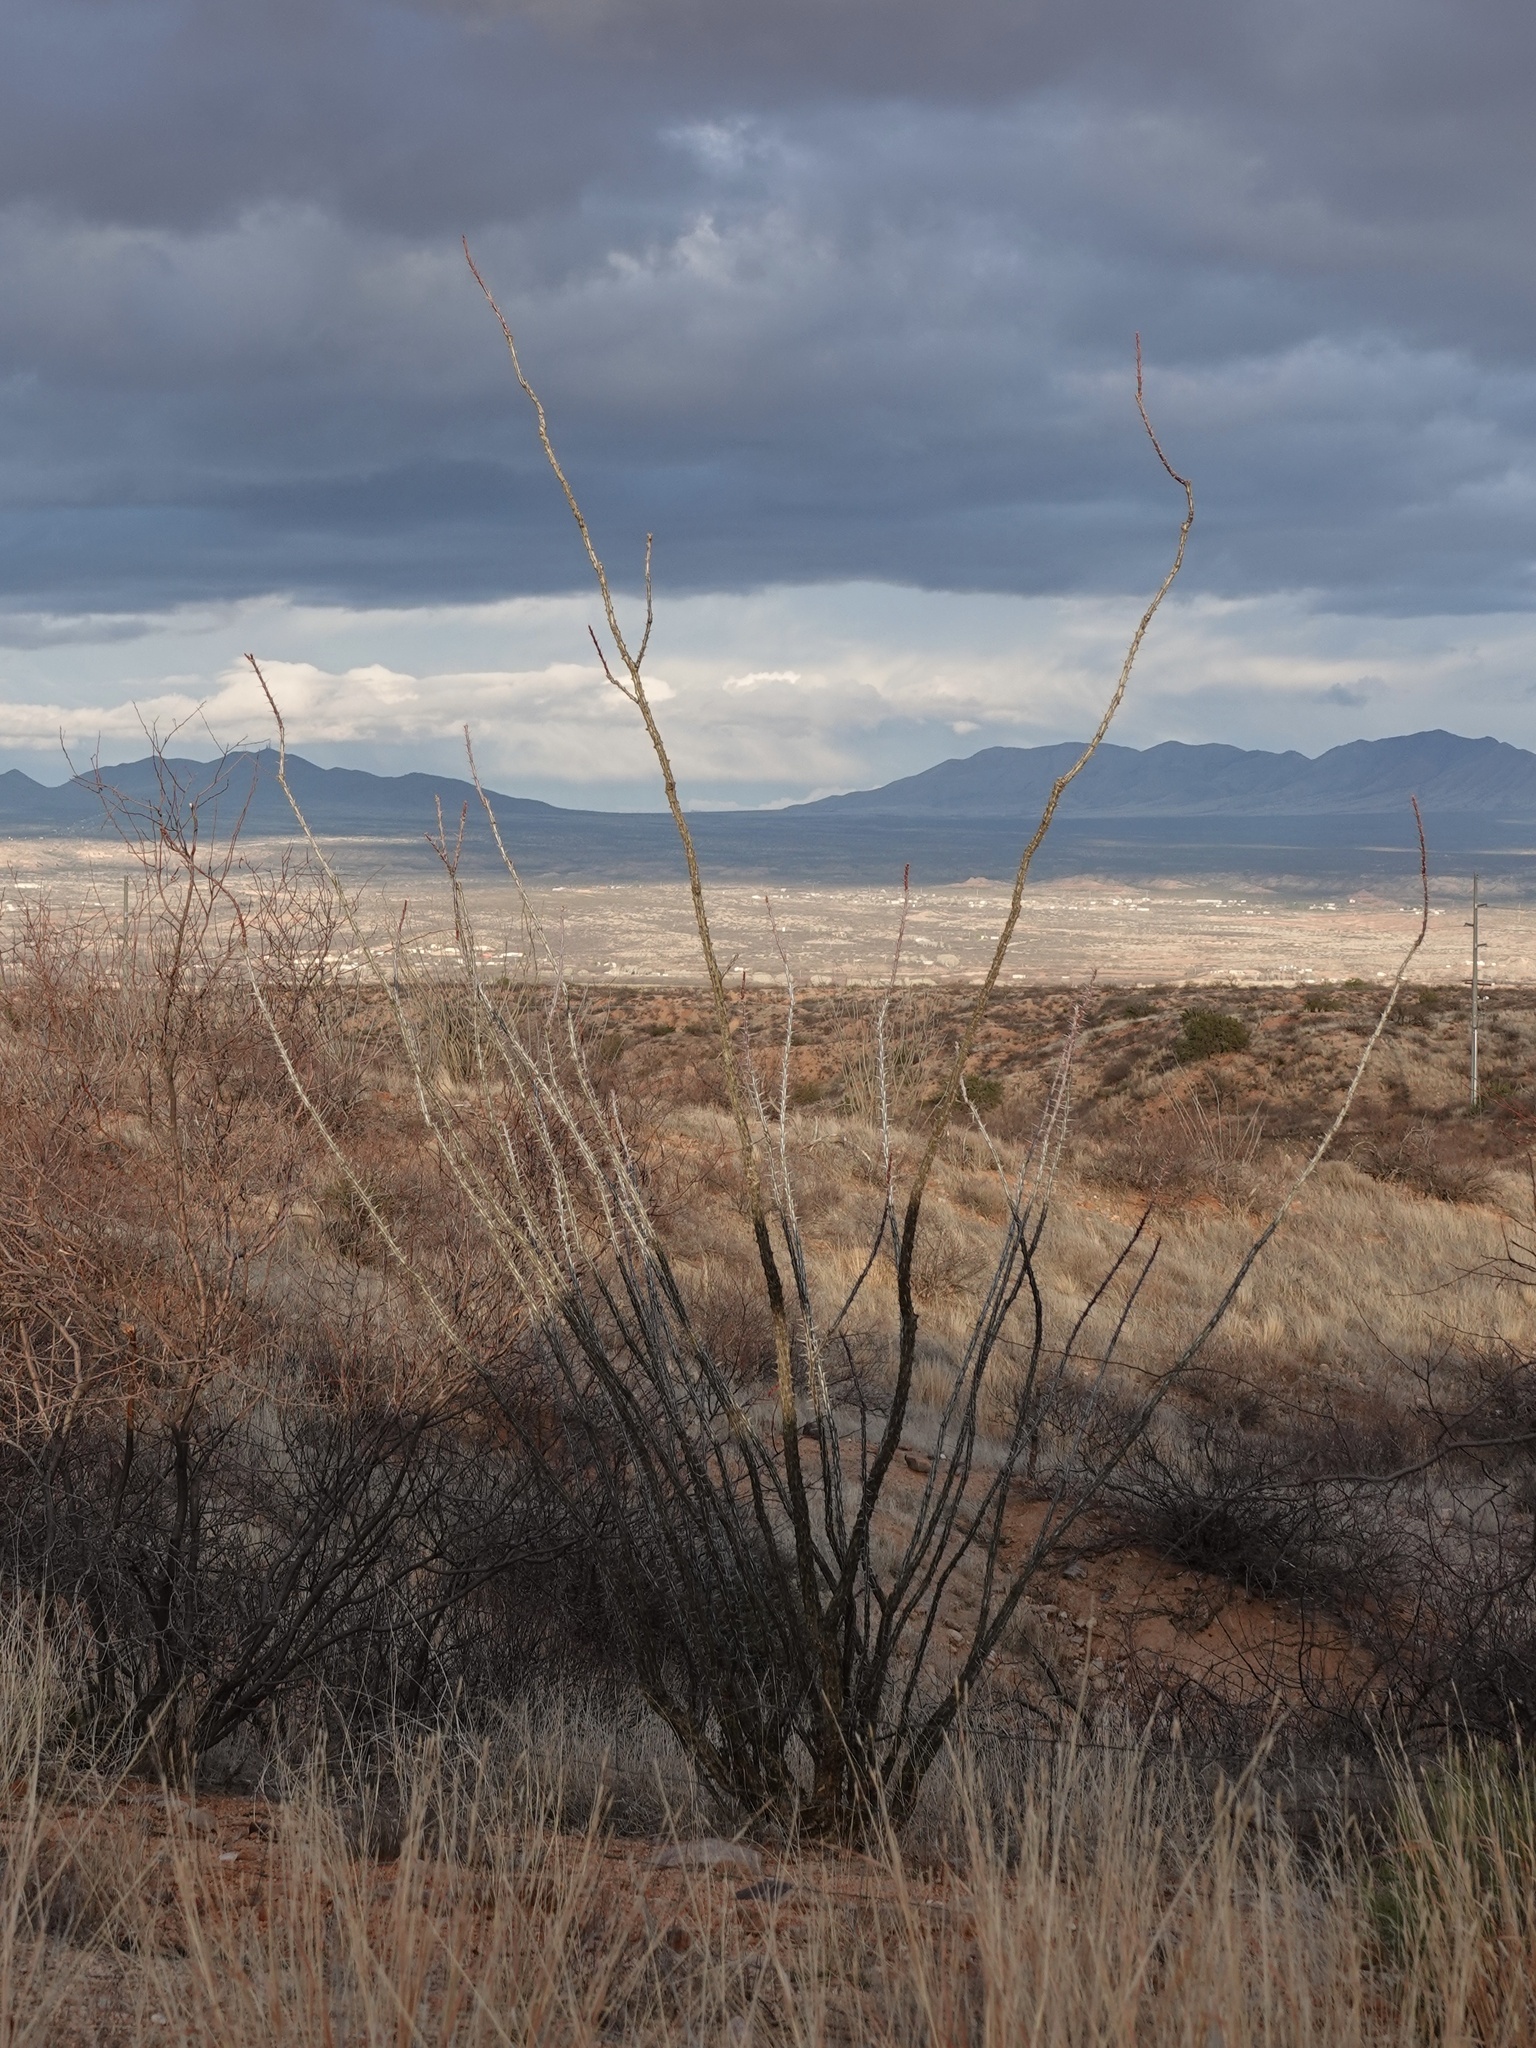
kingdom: Plantae
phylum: Tracheophyta
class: Magnoliopsida
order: Ericales
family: Fouquieriaceae
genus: Fouquieria
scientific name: Fouquieria splendens
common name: Vine-cactus
